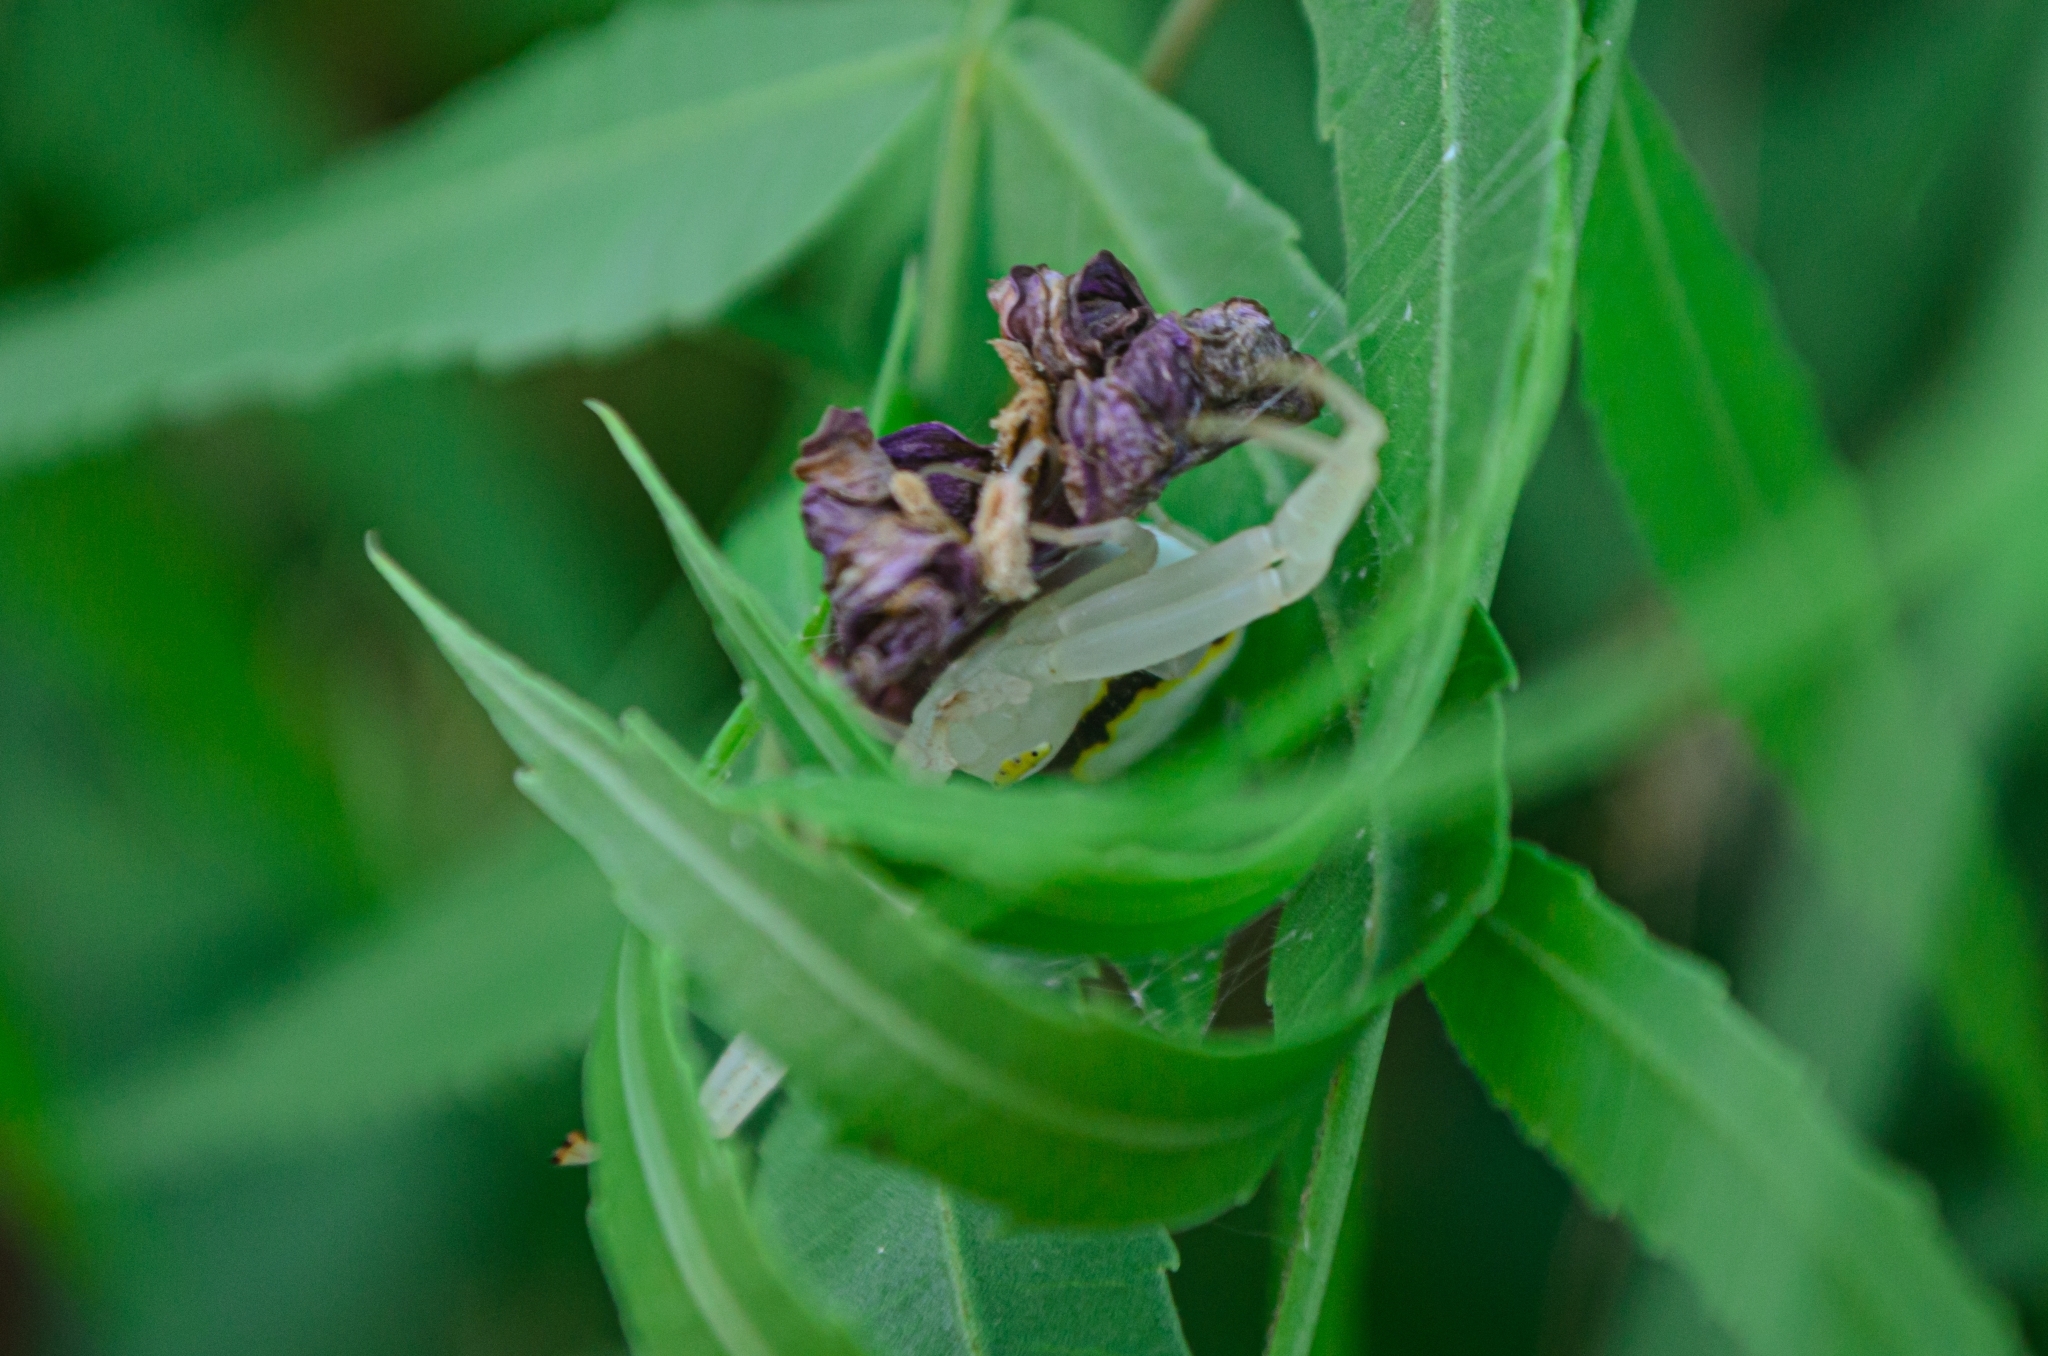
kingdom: Animalia
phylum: Arthropoda
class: Arachnida
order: Araneae
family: Thomisidae
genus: Misumenops
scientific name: Misumenops callinurus
